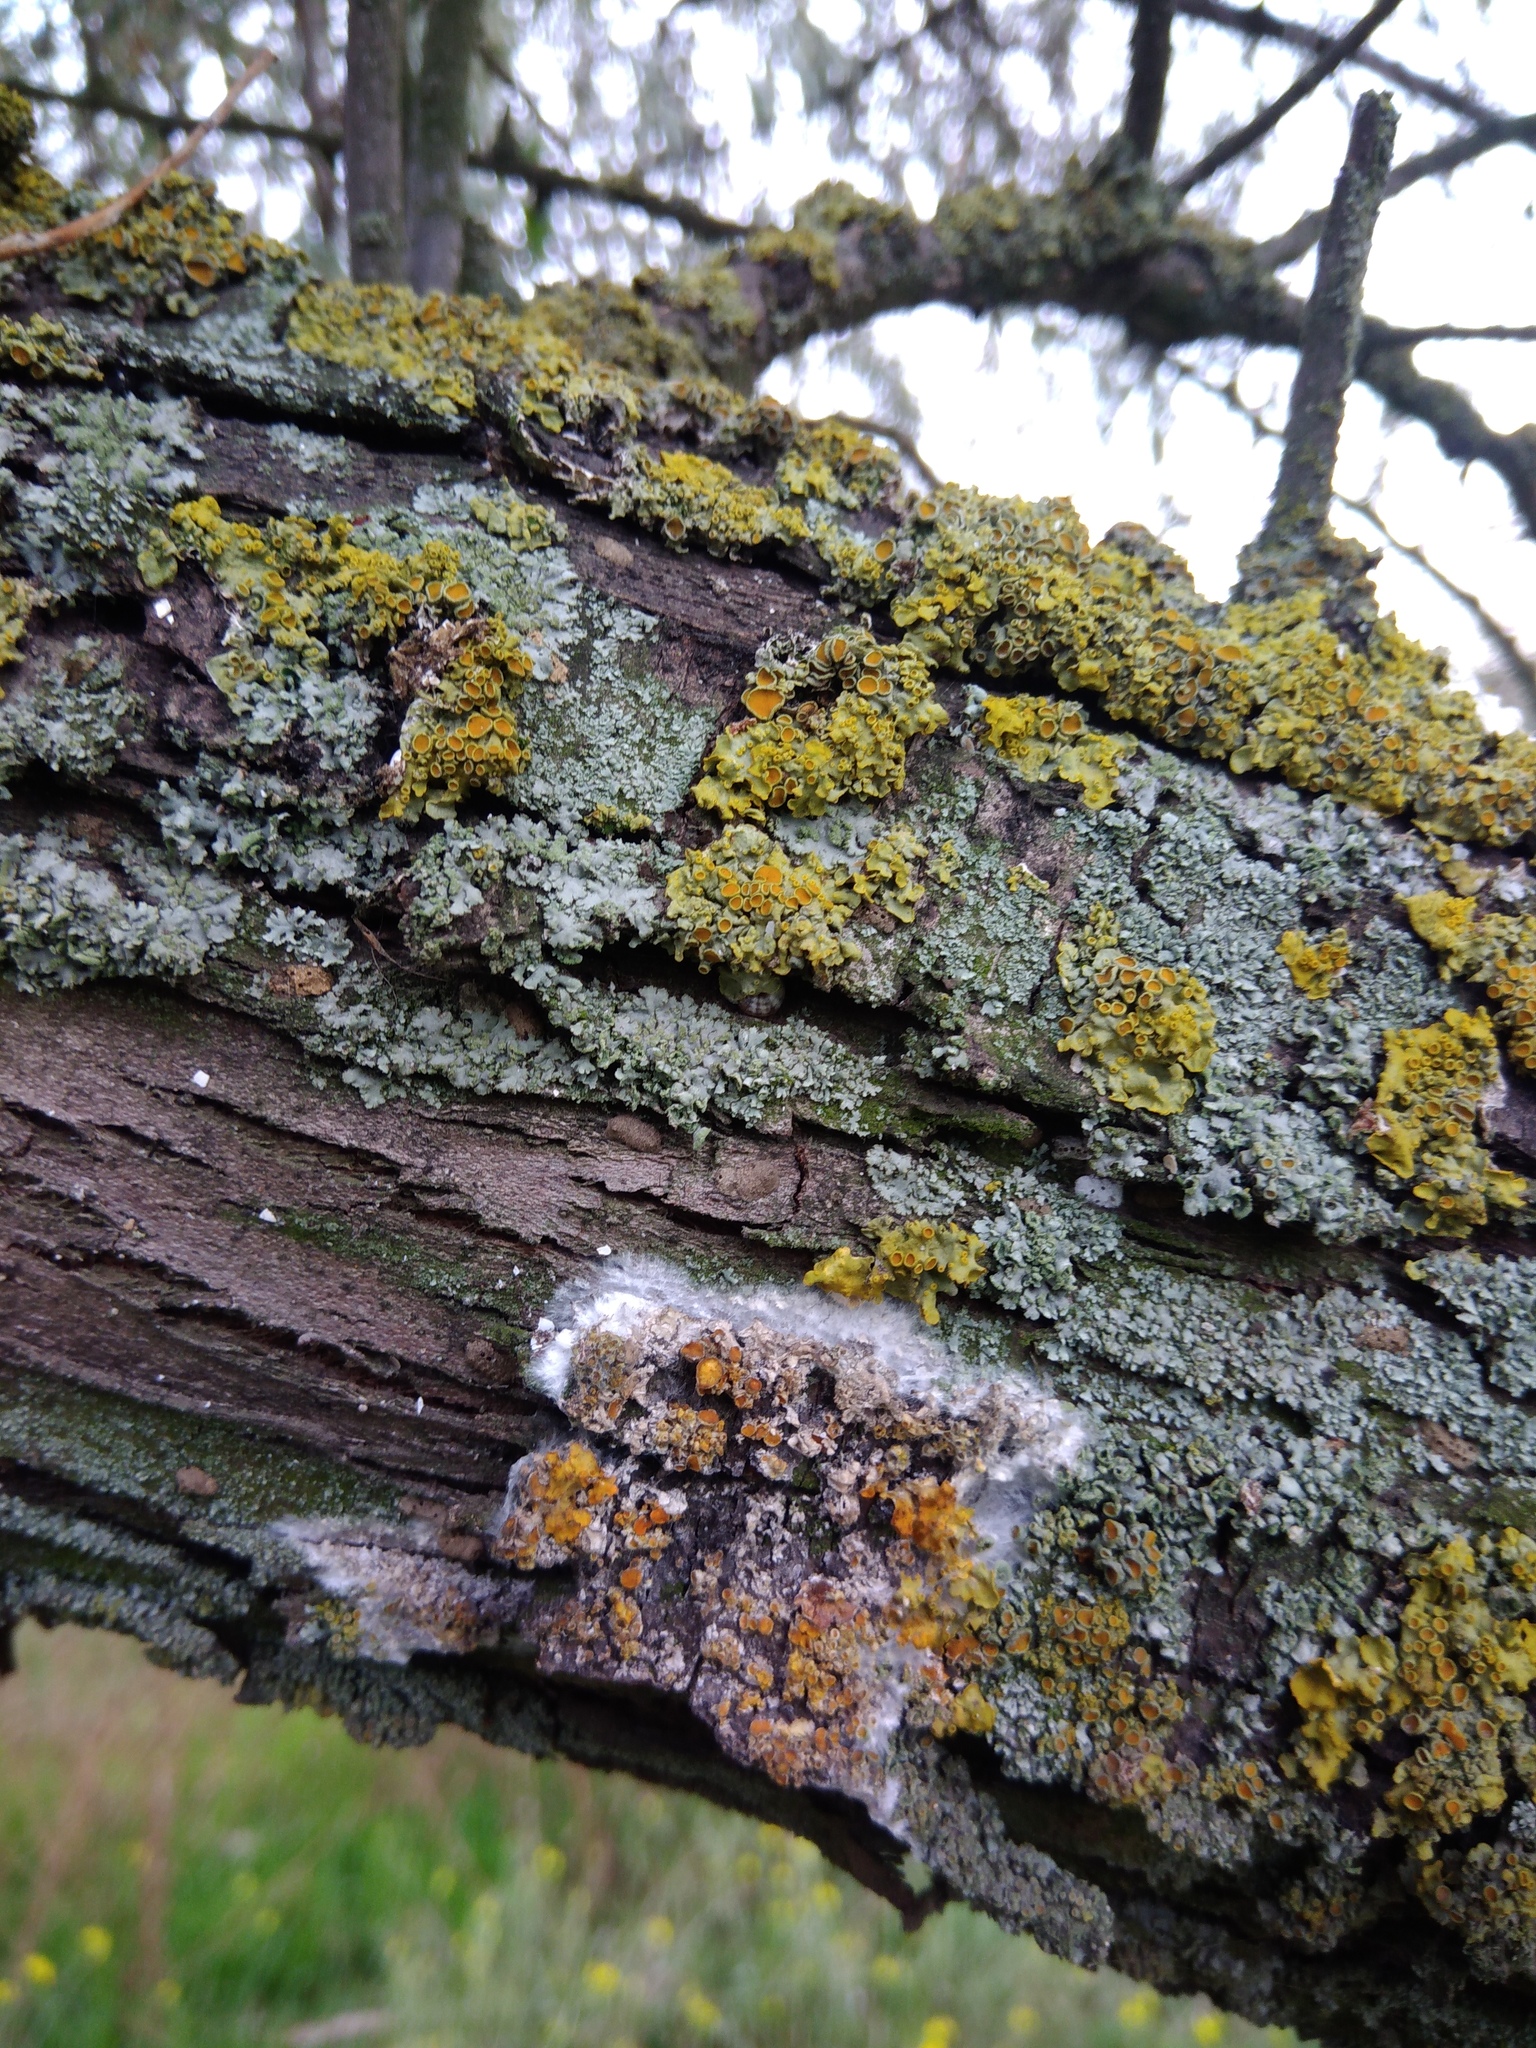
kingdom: Fungi
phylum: Basidiomycota
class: Agaricomycetes
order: Atheliales
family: Atheliaceae
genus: Athelia
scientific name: Athelia arachnoidea
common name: Candelabra duster
